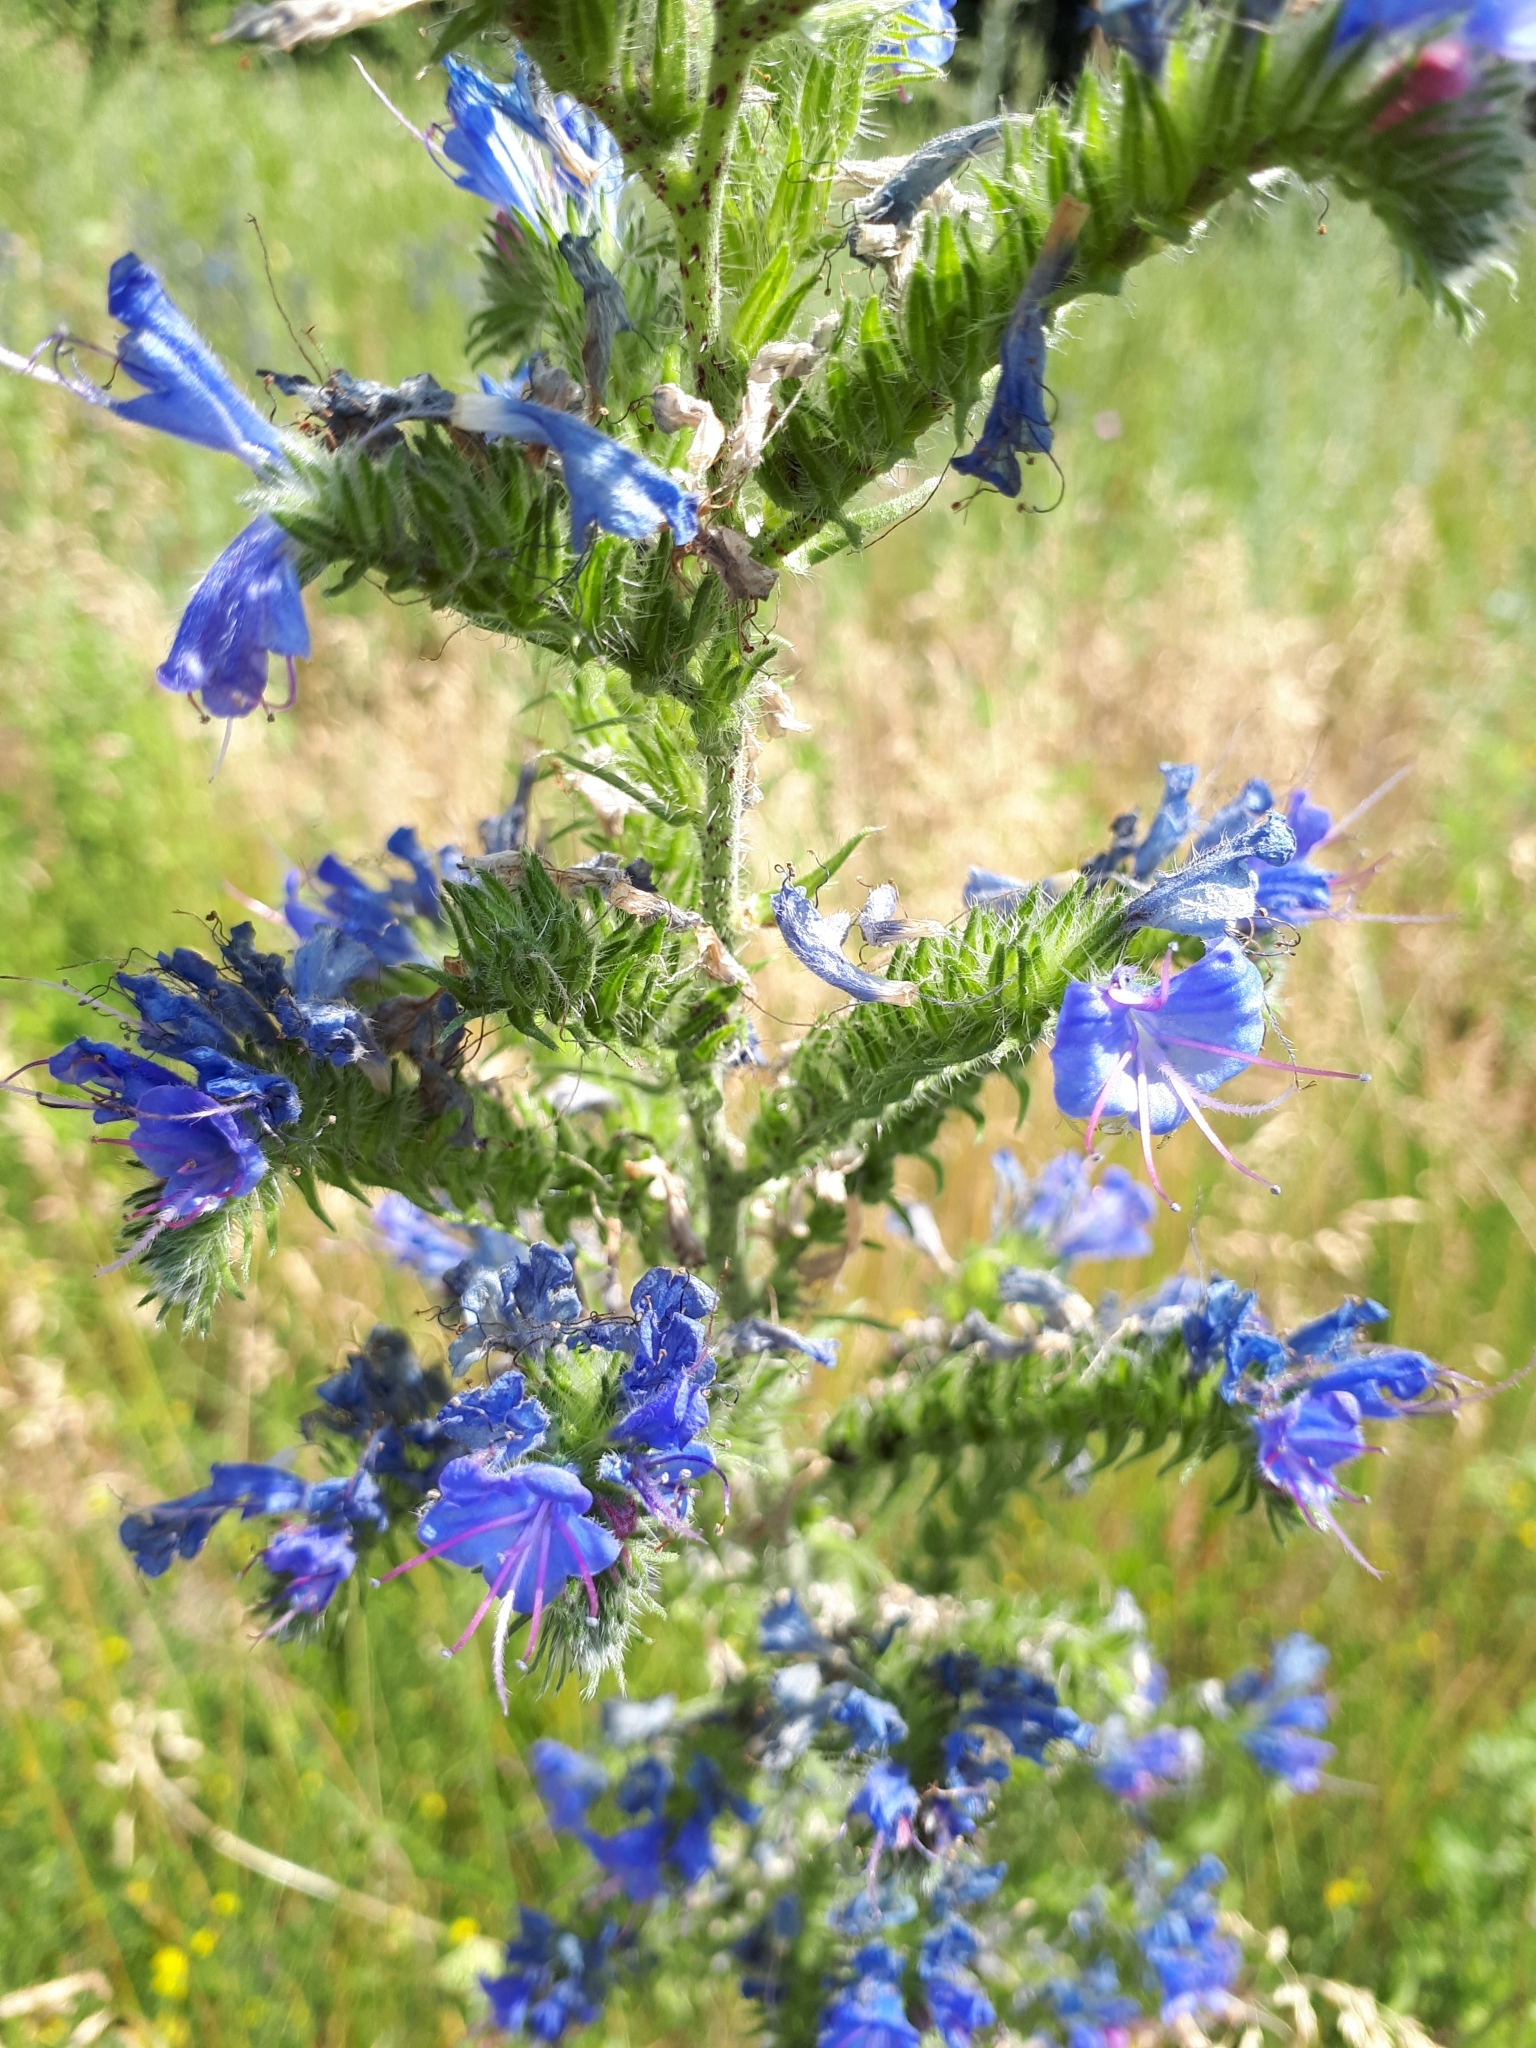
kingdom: Plantae
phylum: Tracheophyta
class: Magnoliopsida
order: Boraginales
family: Boraginaceae
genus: Echium
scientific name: Echium vulgare
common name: Common viper's bugloss
